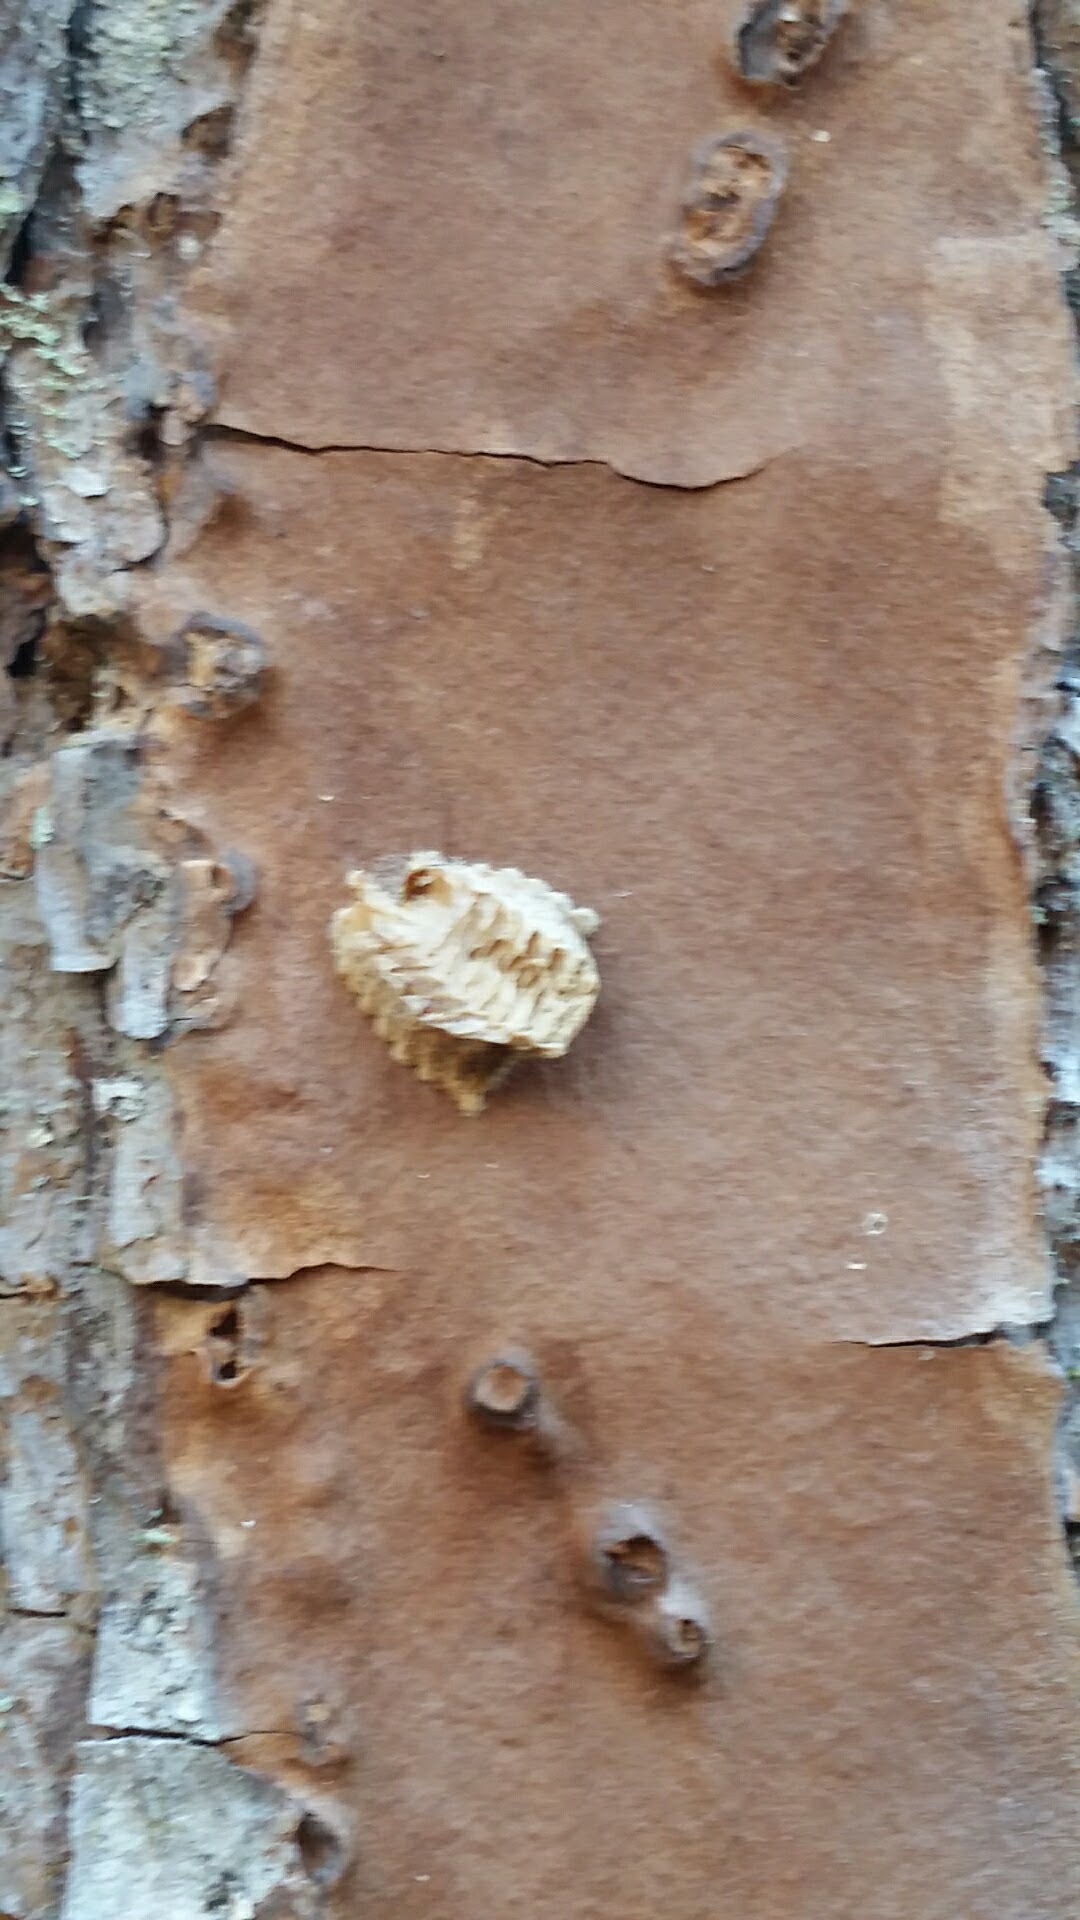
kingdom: Animalia
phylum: Arthropoda
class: Insecta
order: Mantodea
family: Epaphroditidae
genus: Gonatista
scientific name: Gonatista grisea
